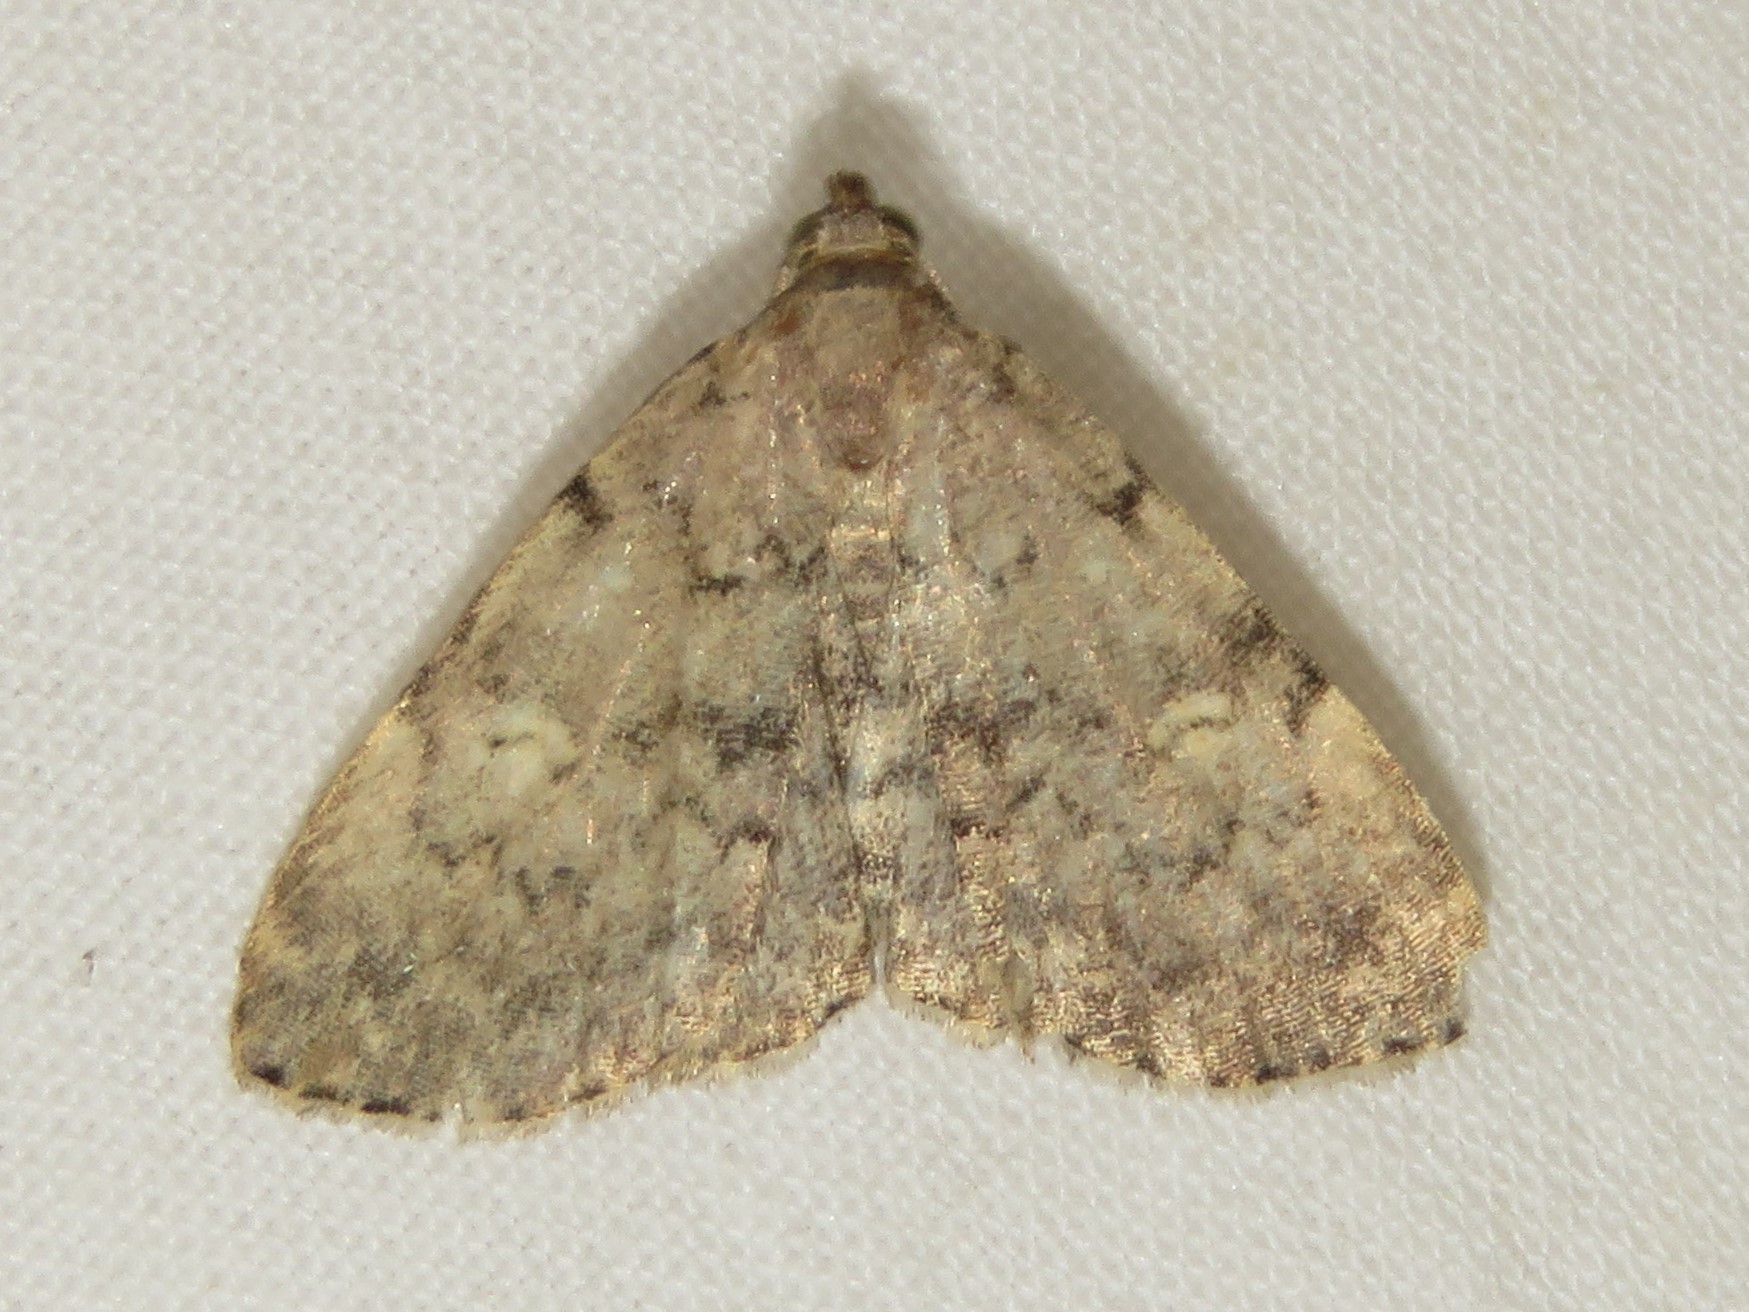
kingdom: Animalia
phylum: Arthropoda
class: Insecta
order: Lepidoptera
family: Erebidae
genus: Idia
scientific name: Idia aemula
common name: Common idia moth
